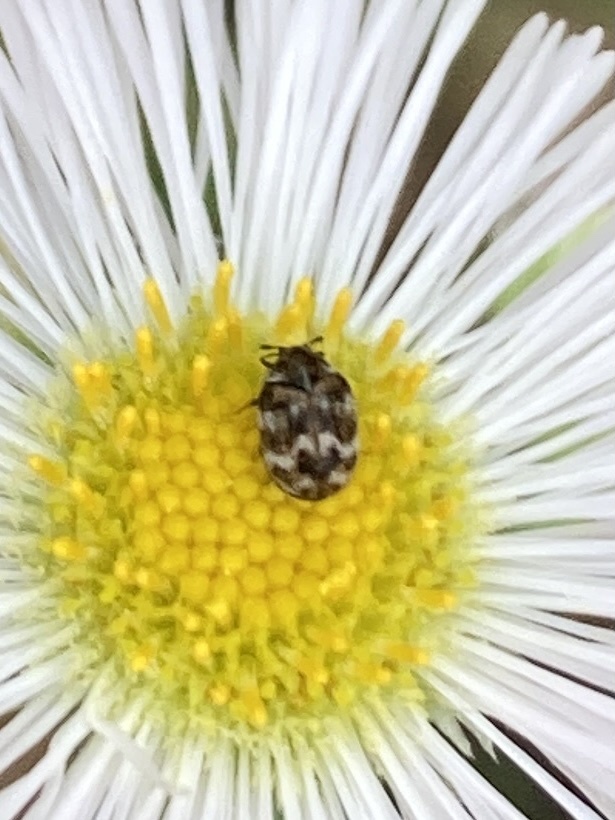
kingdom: Animalia
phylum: Arthropoda
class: Insecta
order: Coleoptera
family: Dermestidae
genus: Anthrenus
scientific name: Anthrenus verbasci
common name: Varied carpet beetle
